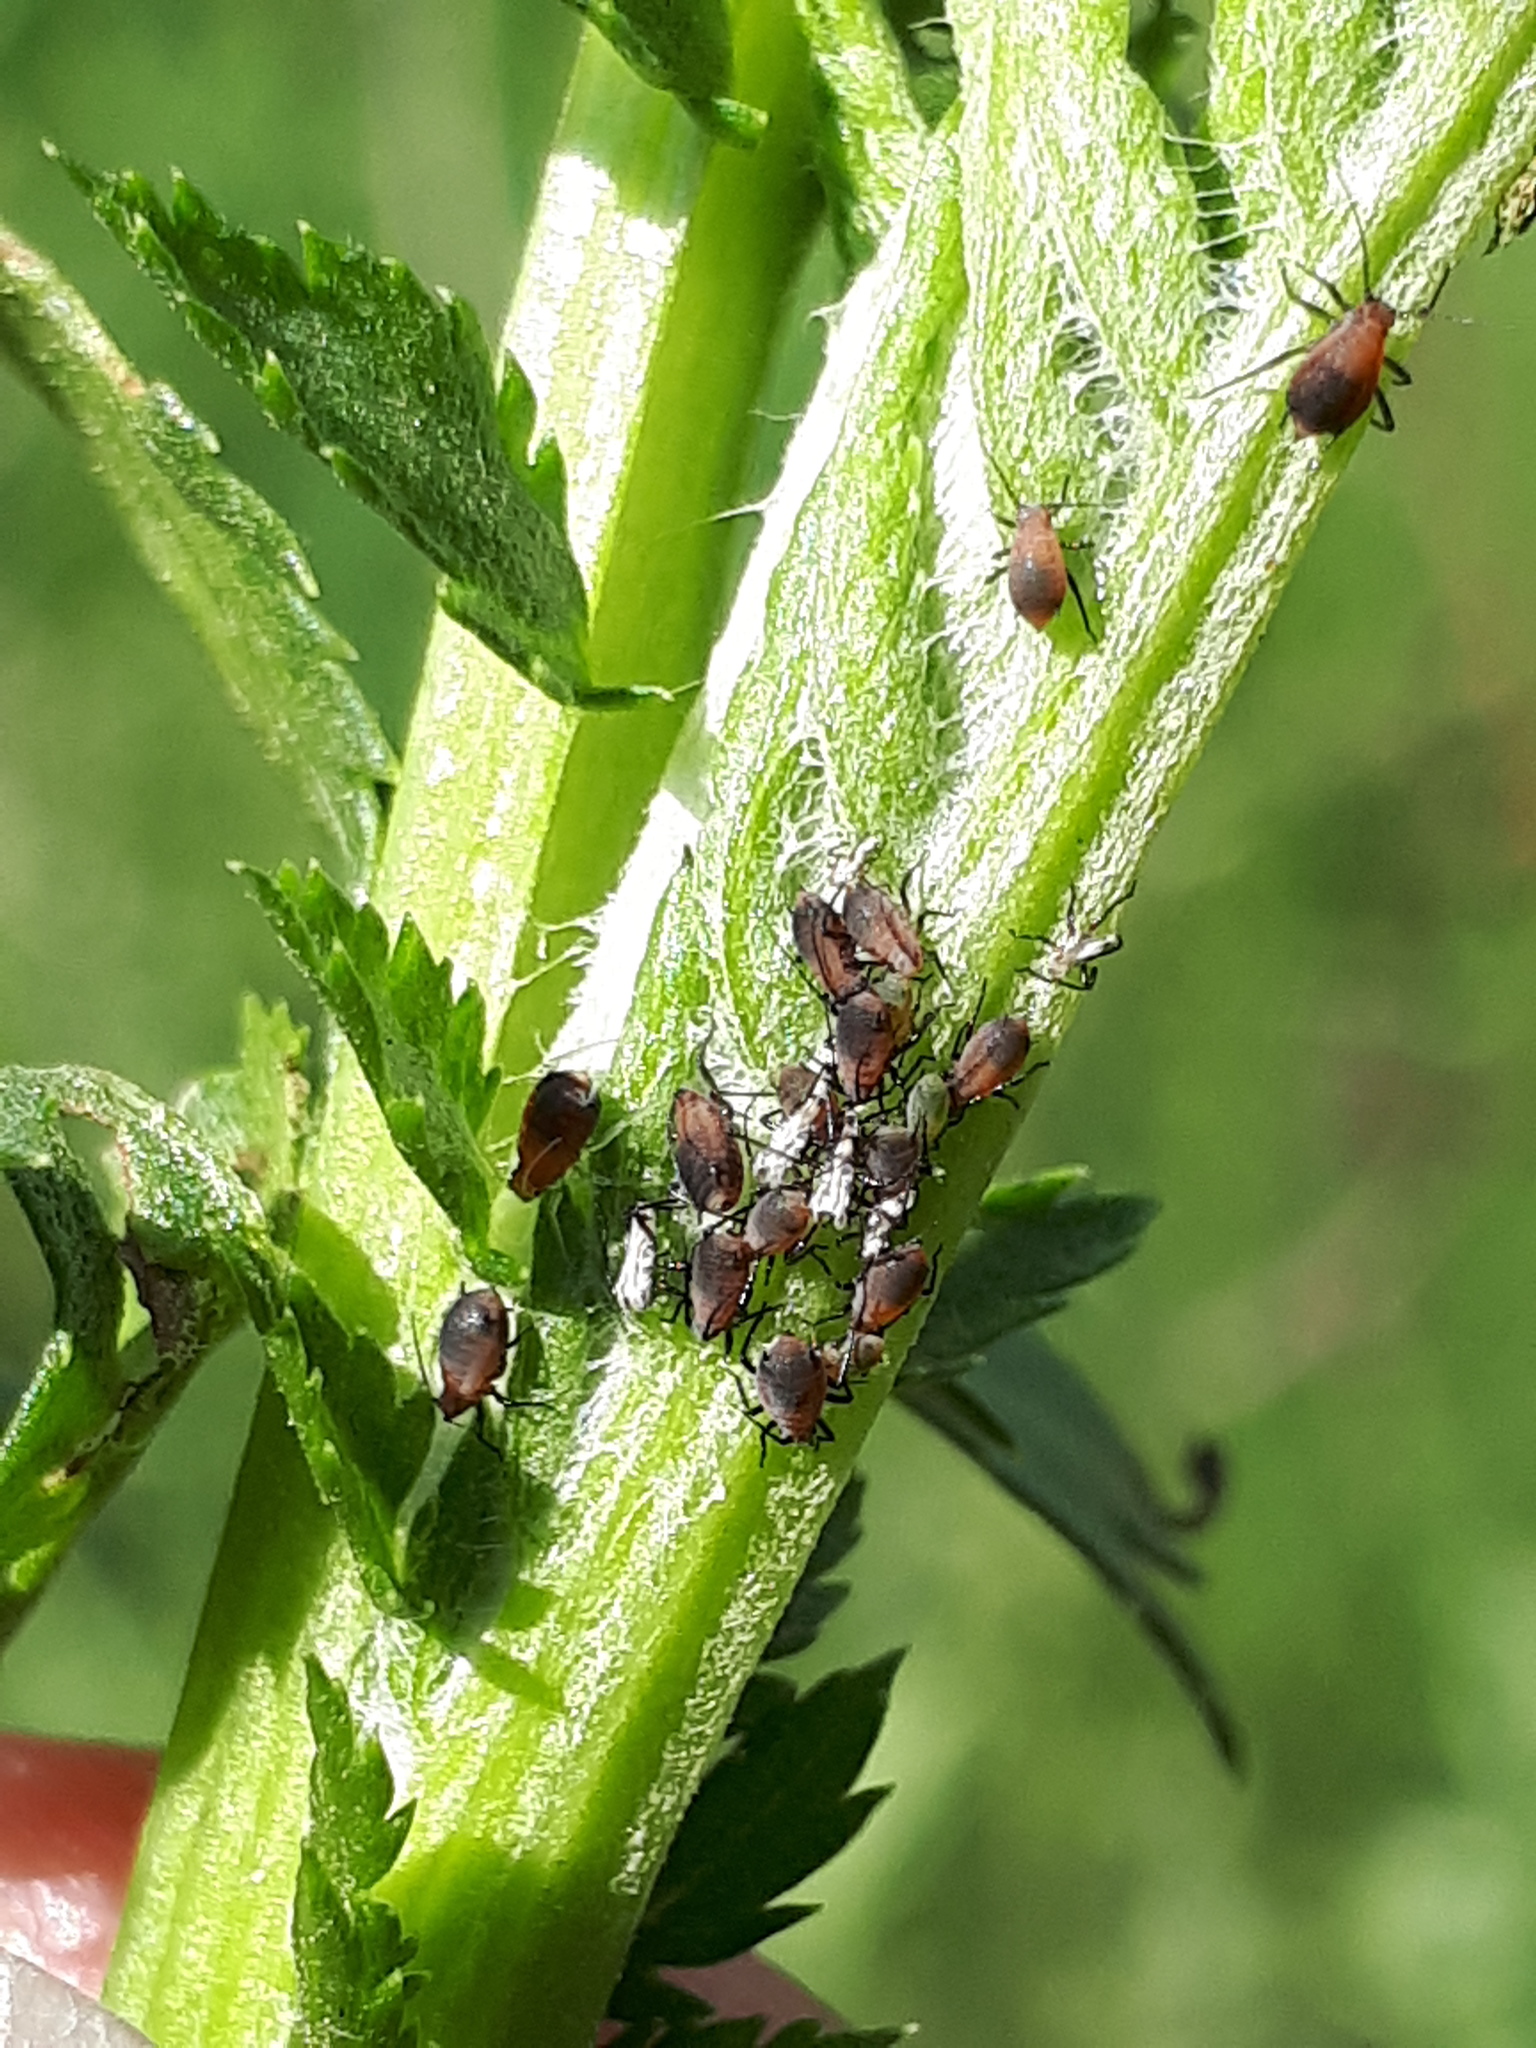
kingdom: Animalia
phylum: Arthropoda
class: Insecta
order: Hemiptera
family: Aphididae
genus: Metopeurum
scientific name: Metopeurum fuscoviride
